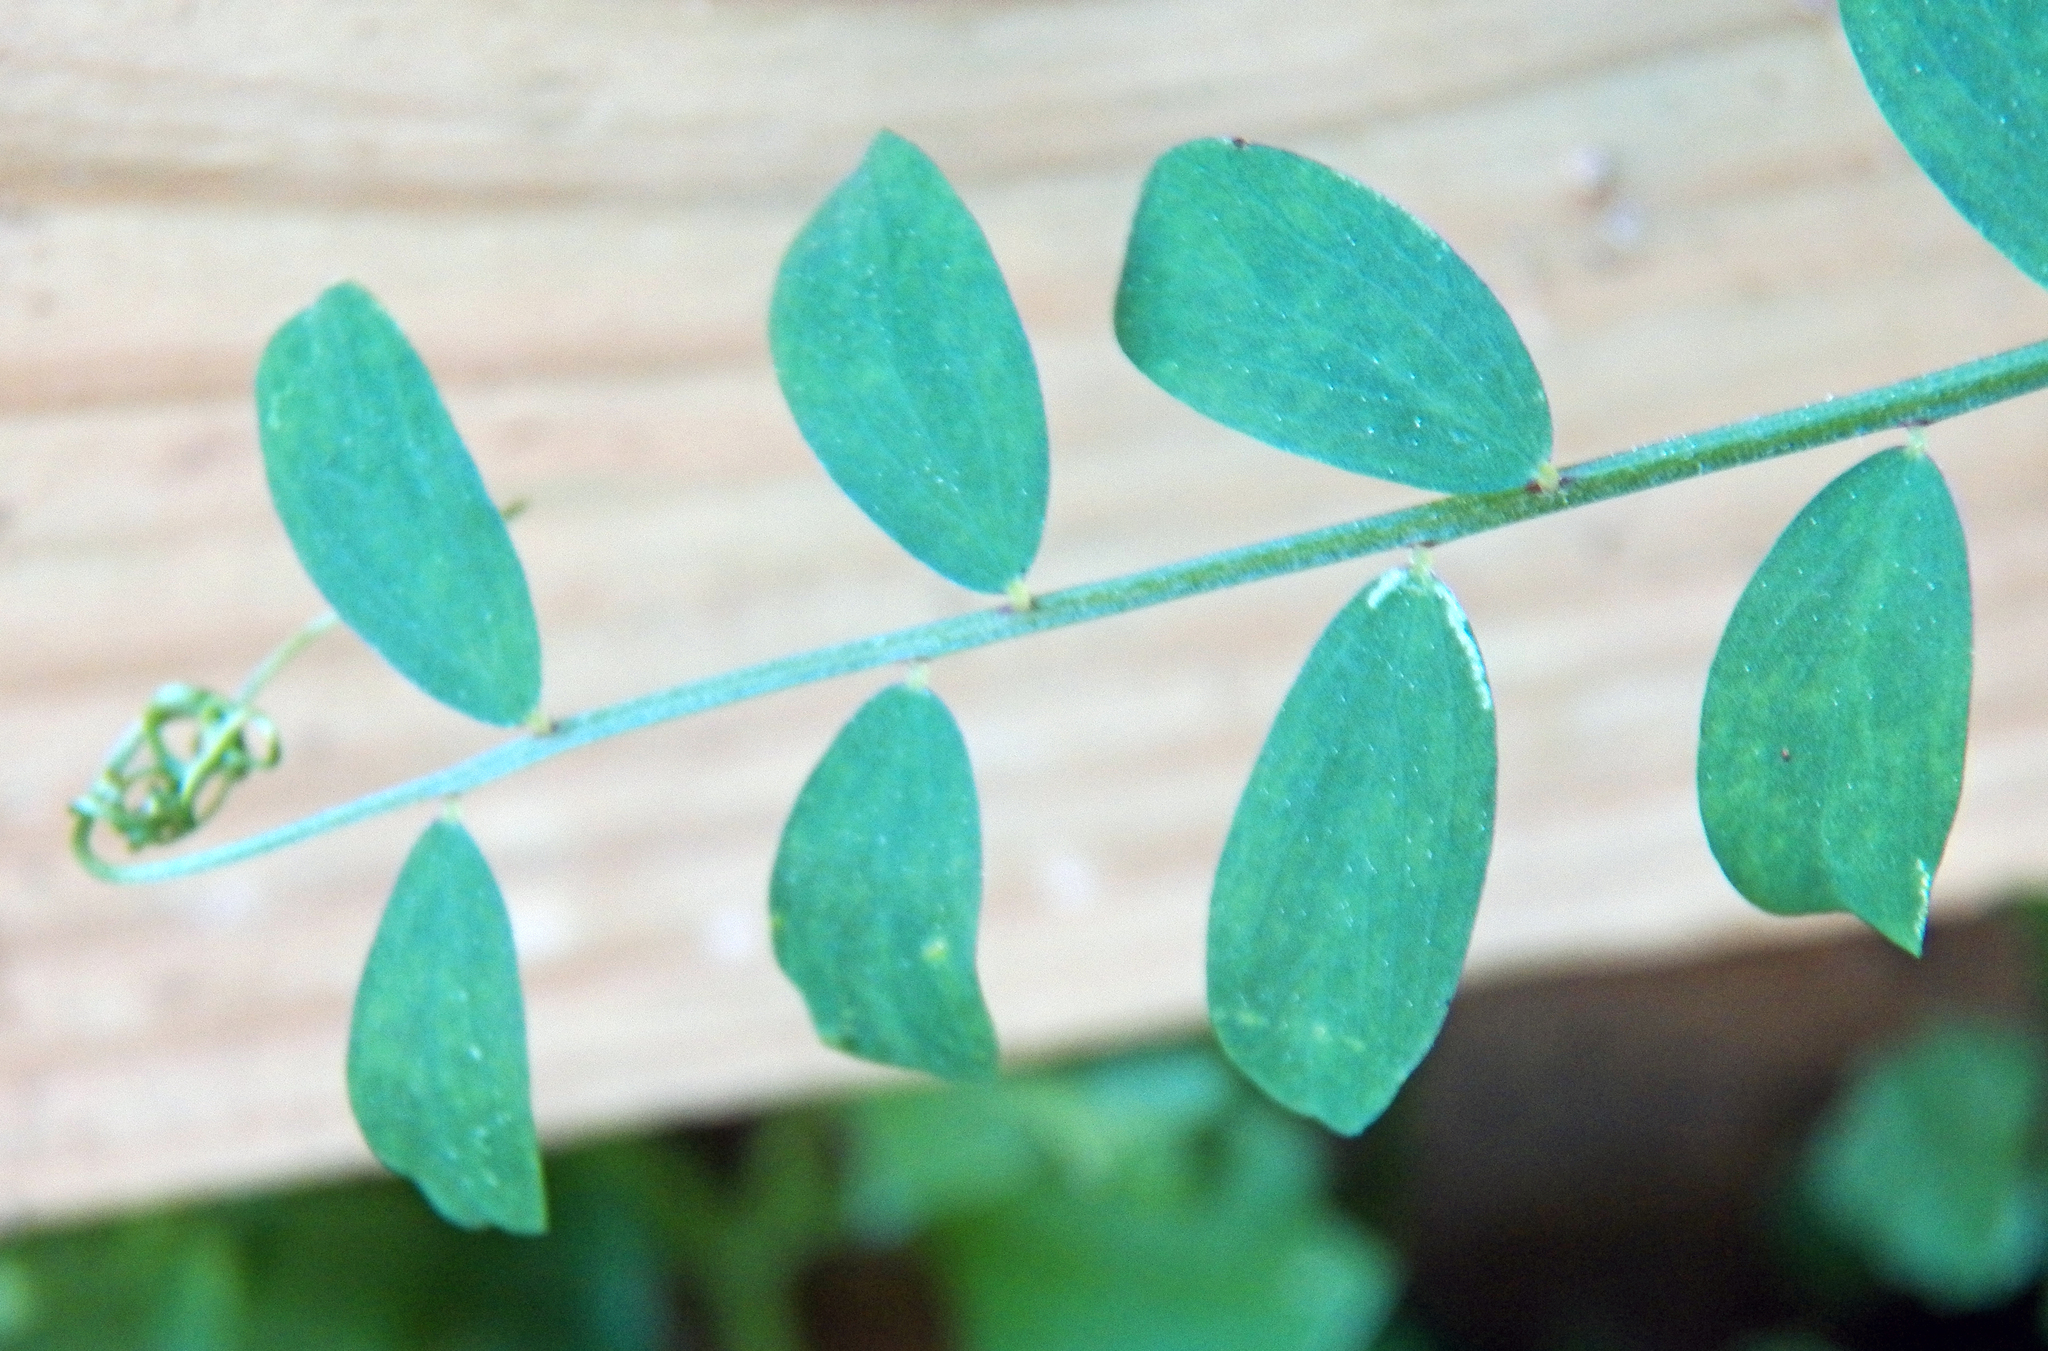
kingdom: Plantae
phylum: Tracheophyta
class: Magnoliopsida
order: Fabales
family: Fabaceae
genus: Vicia
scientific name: Vicia ludoviciana
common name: Louisiana vetch
